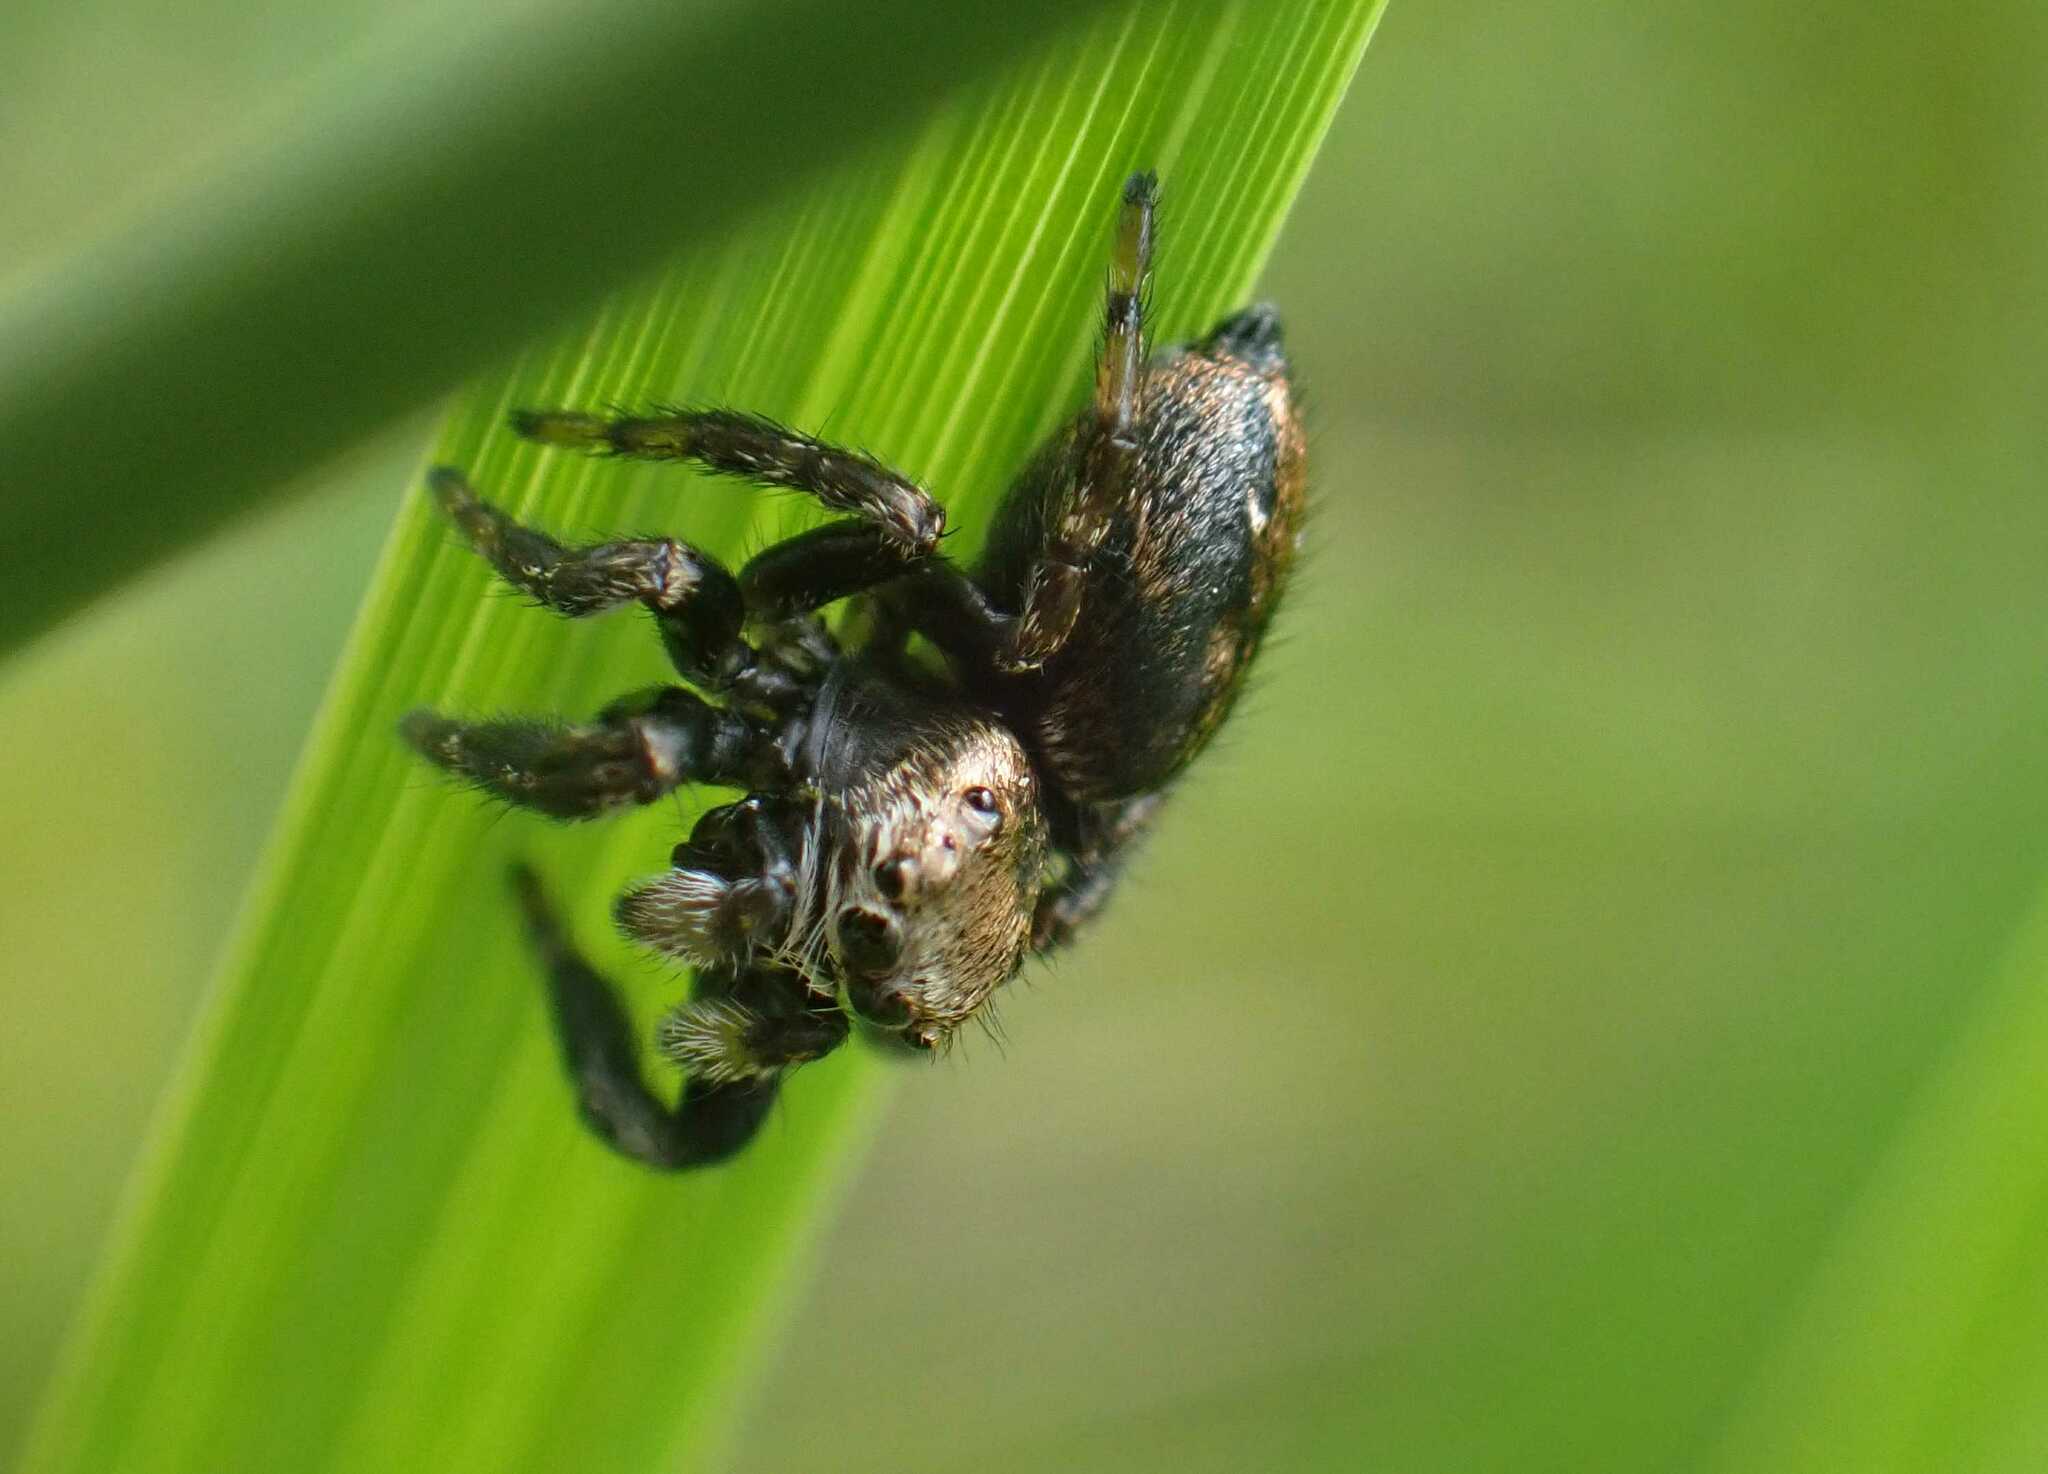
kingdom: Animalia
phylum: Arthropoda
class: Arachnida
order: Araneae
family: Salticidae
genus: Evarcha
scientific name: Evarcha arcuata
